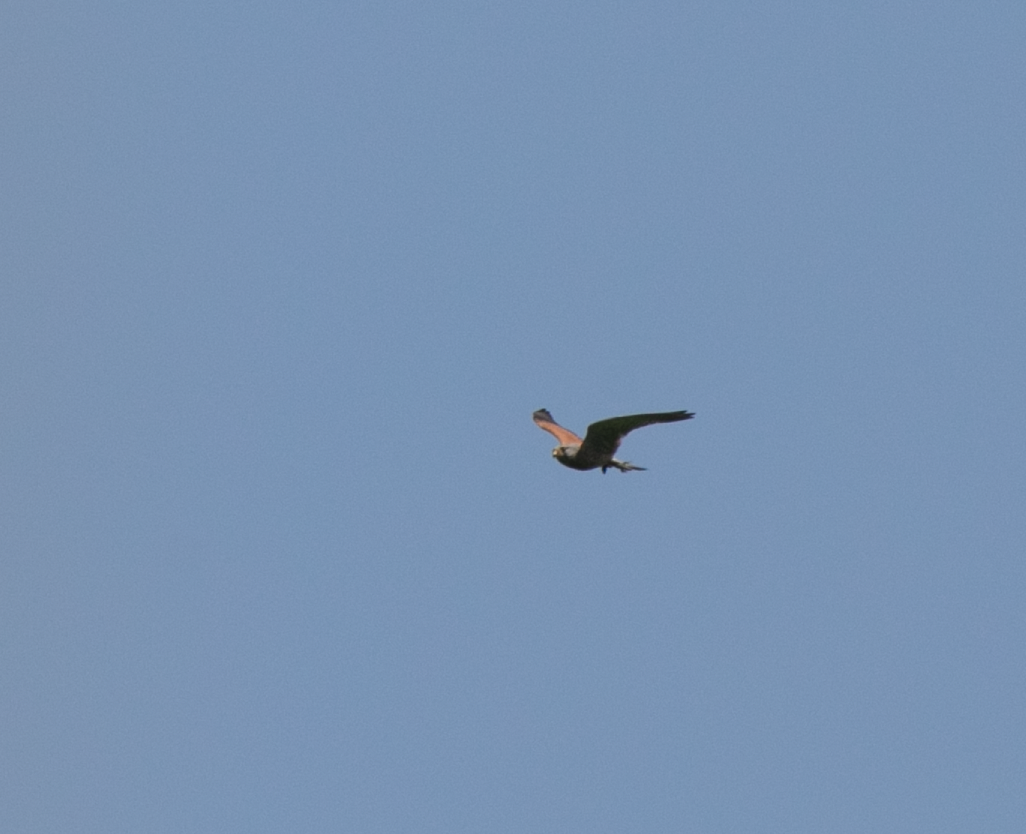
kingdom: Animalia
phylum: Chordata
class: Aves
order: Falconiformes
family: Falconidae
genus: Falco
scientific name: Falco tinnunculus
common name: Common kestrel
